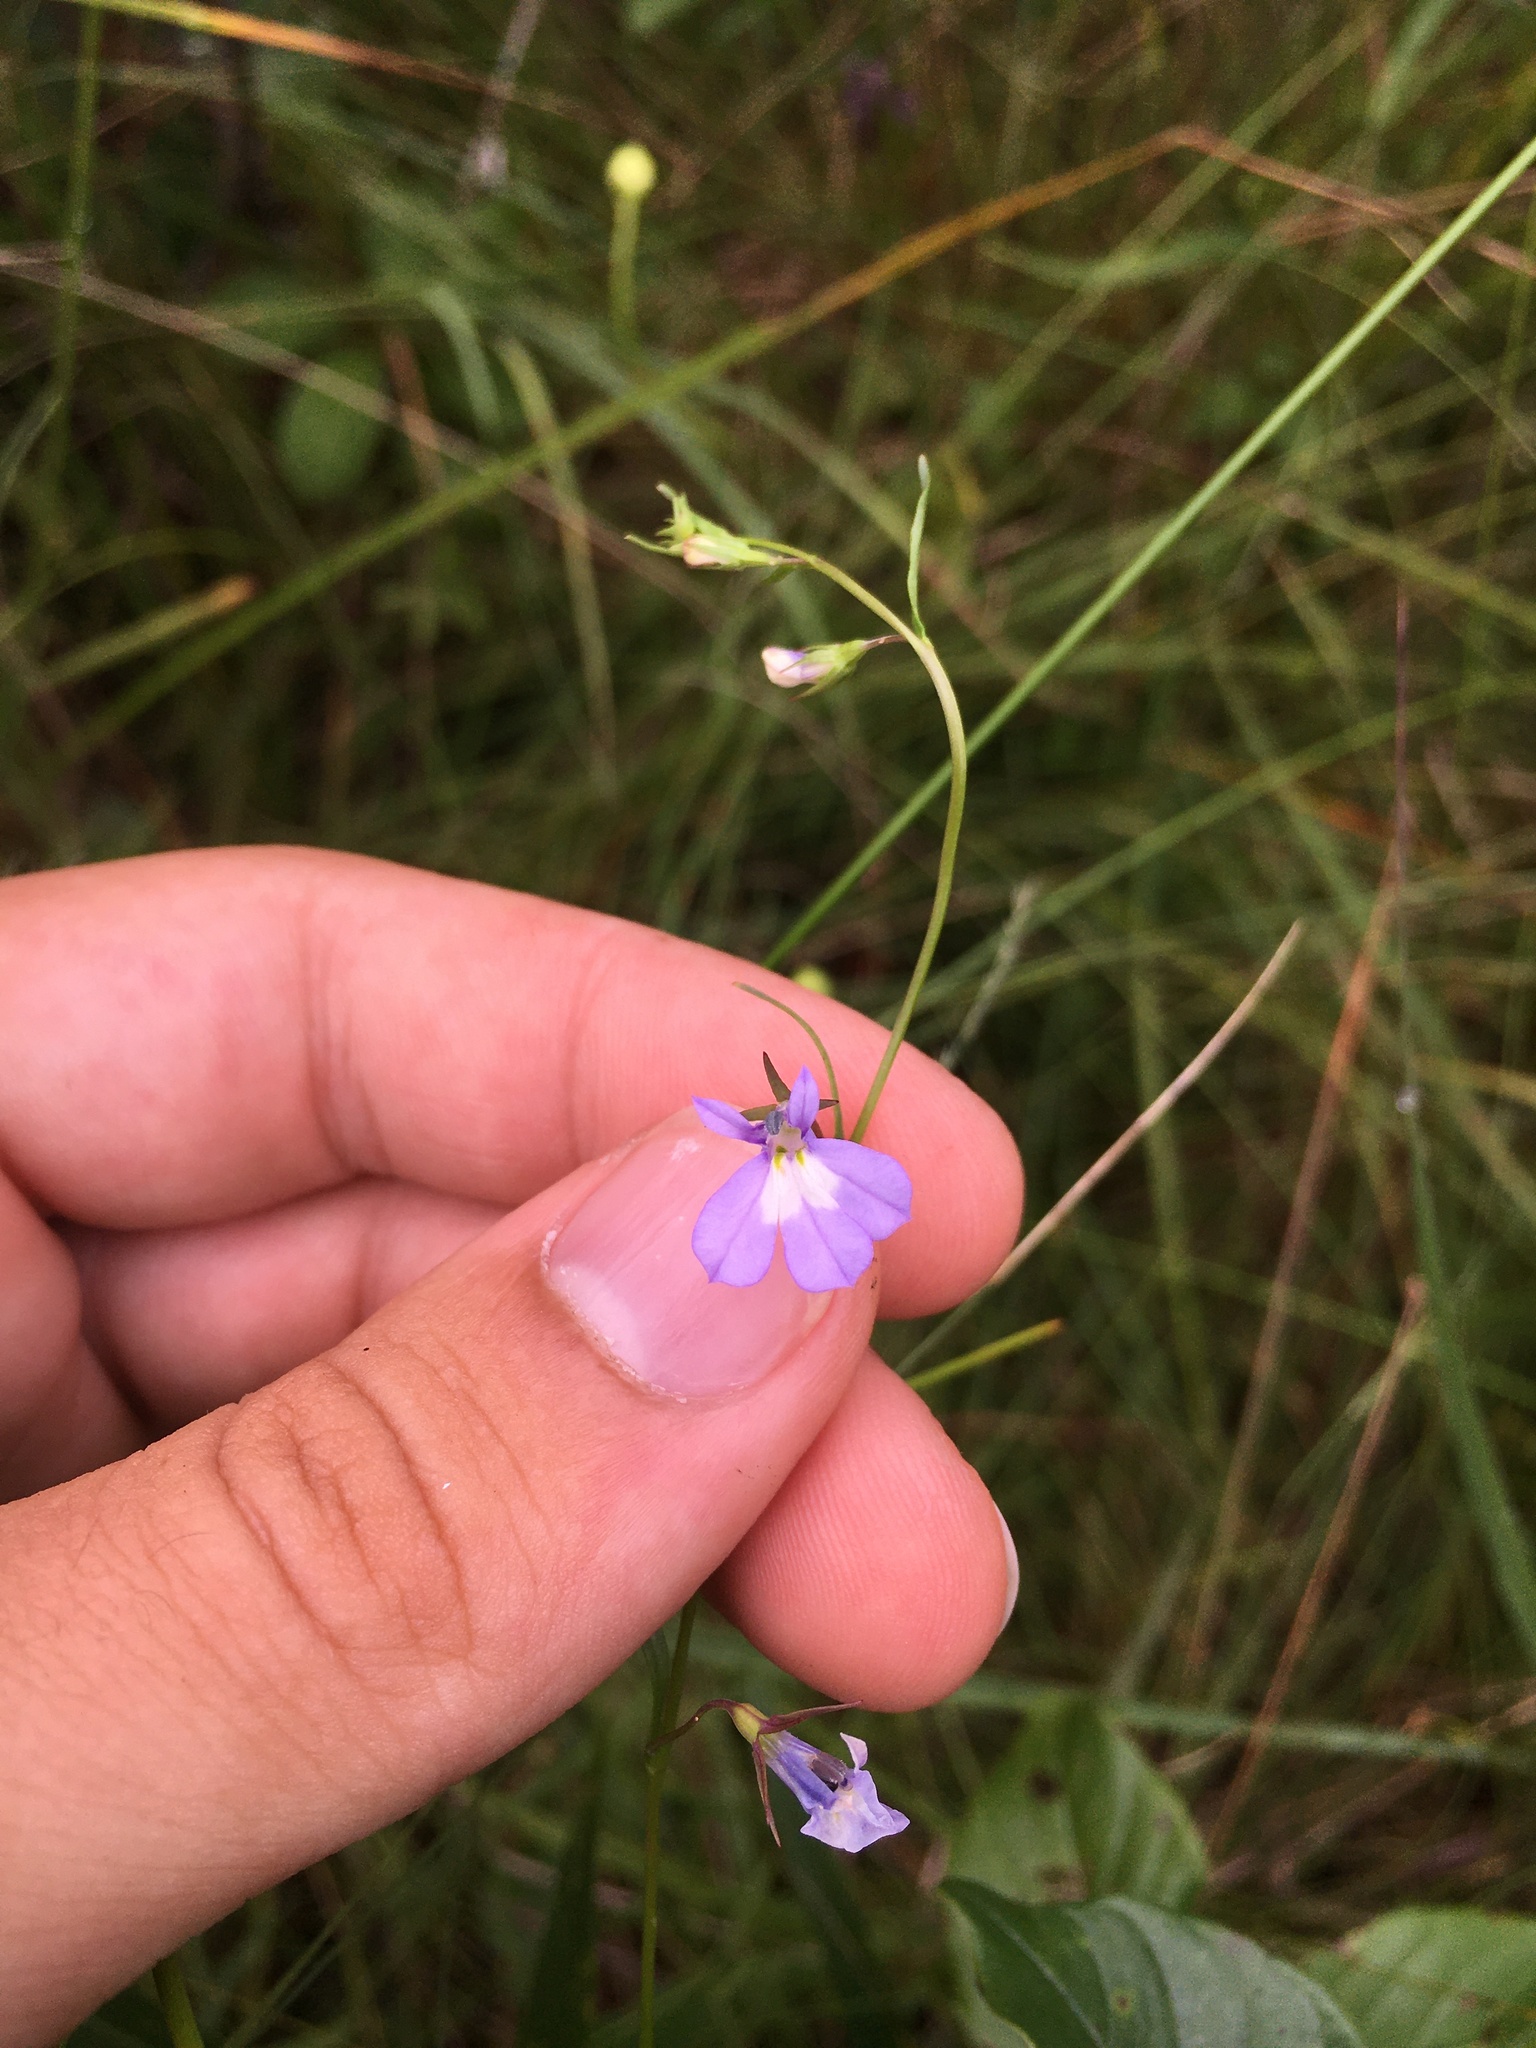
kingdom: Plantae
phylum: Tracheophyta
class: Magnoliopsida
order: Asterales
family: Campanulaceae
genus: Lobelia
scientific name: Lobelia kalmii
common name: Kalm's lobelia
